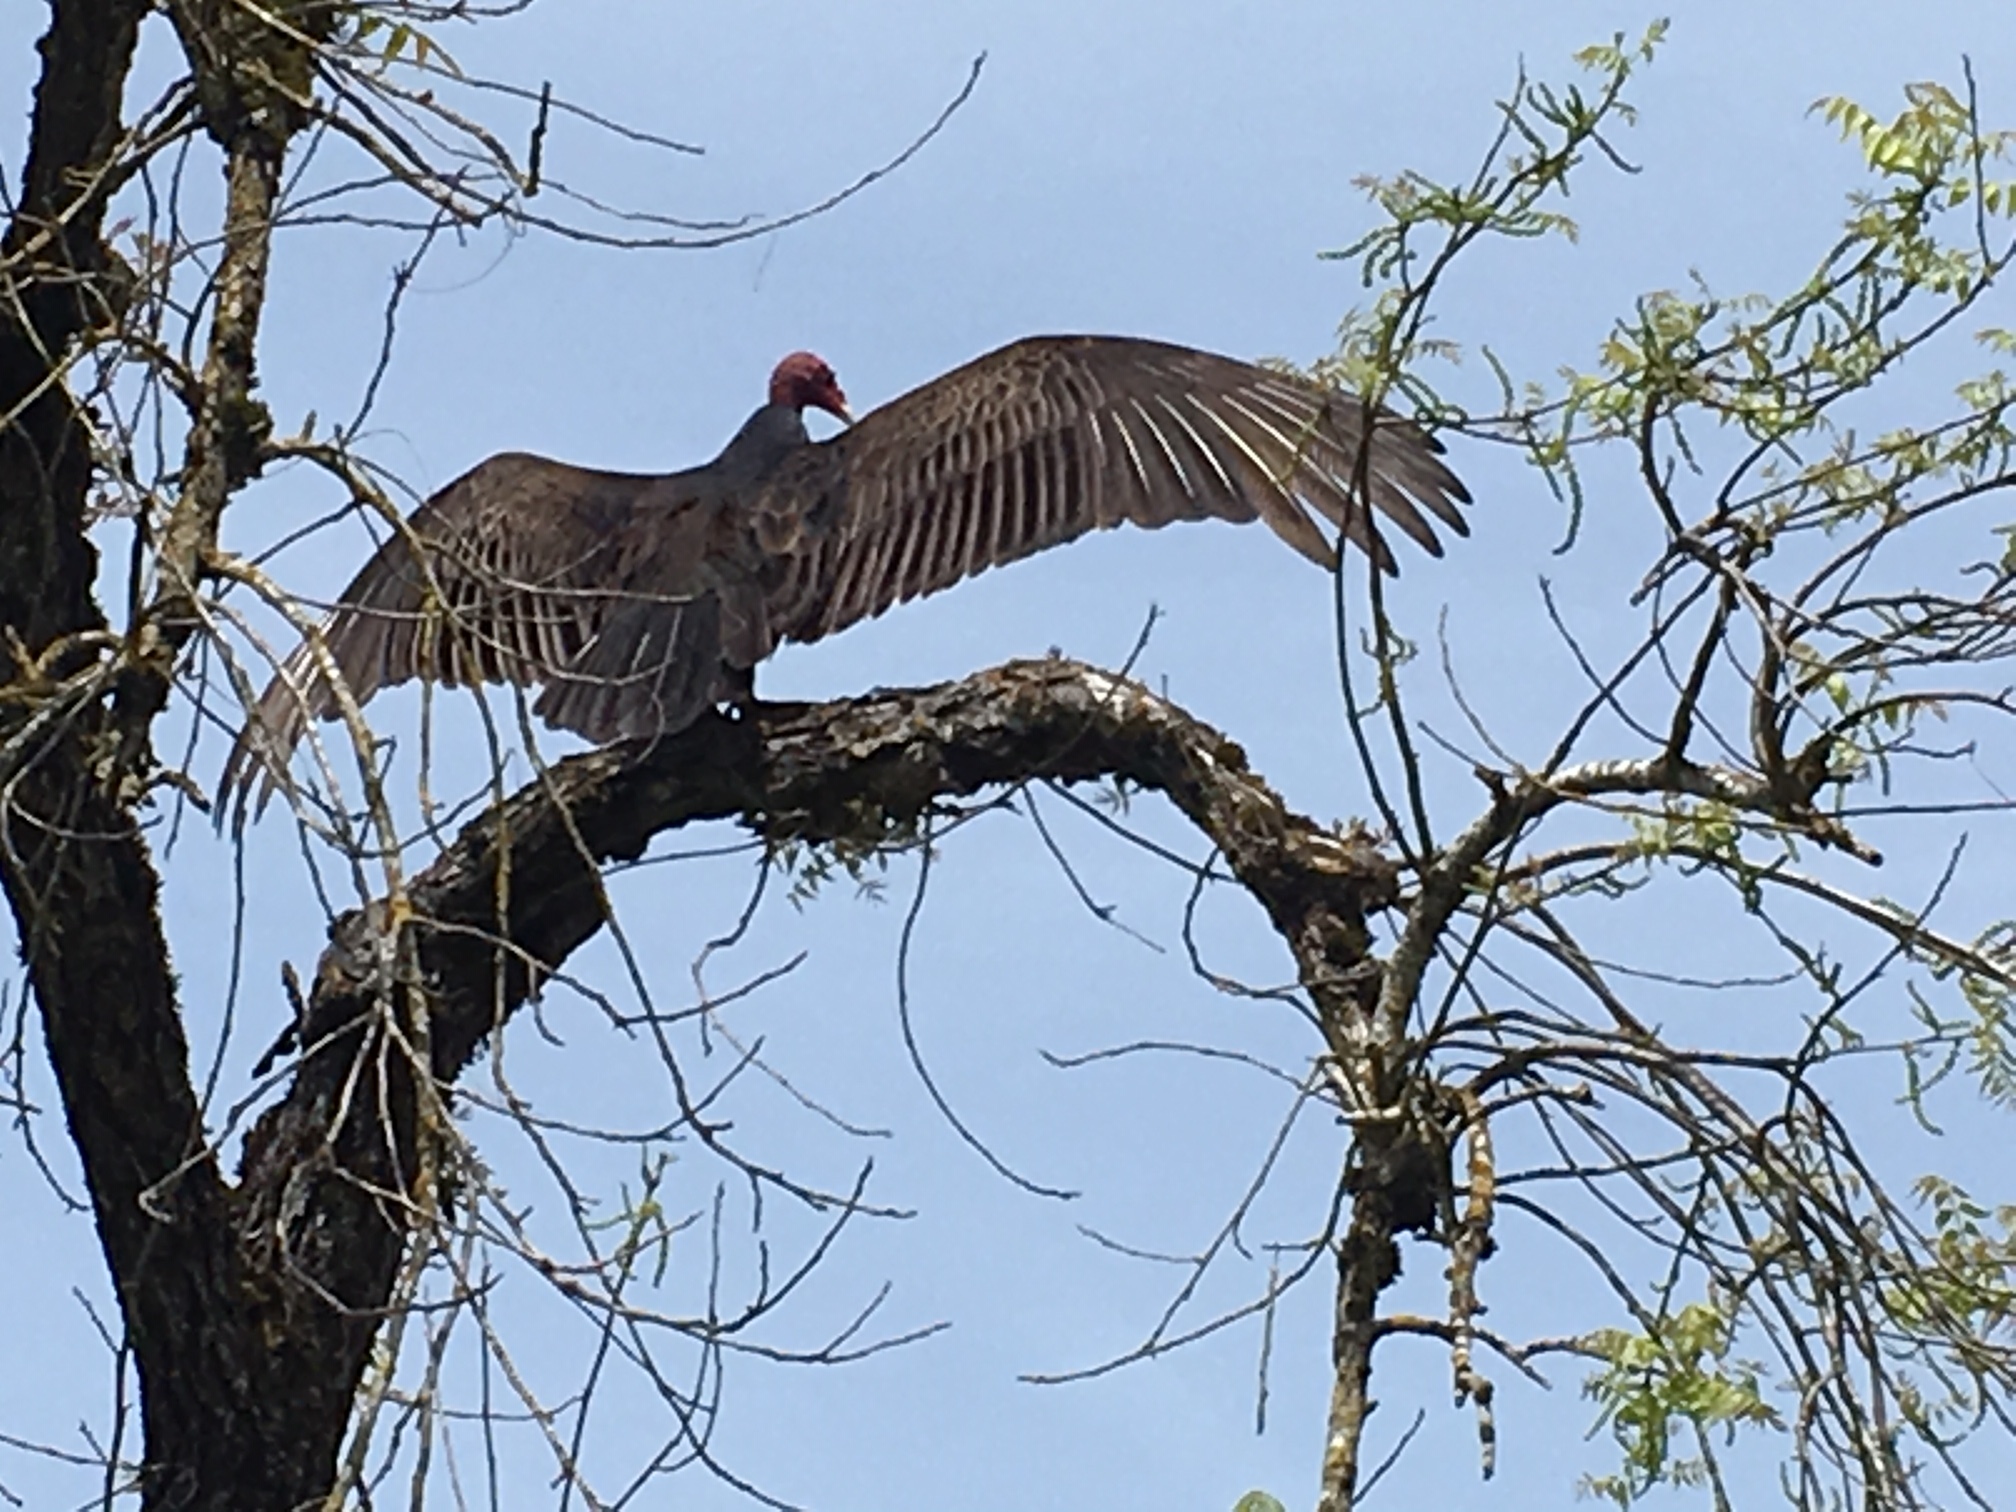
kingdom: Animalia
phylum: Chordata
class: Aves
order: Accipitriformes
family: Cathartidae
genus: Cathartes
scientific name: Cathartes aura
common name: Turkey vulture
